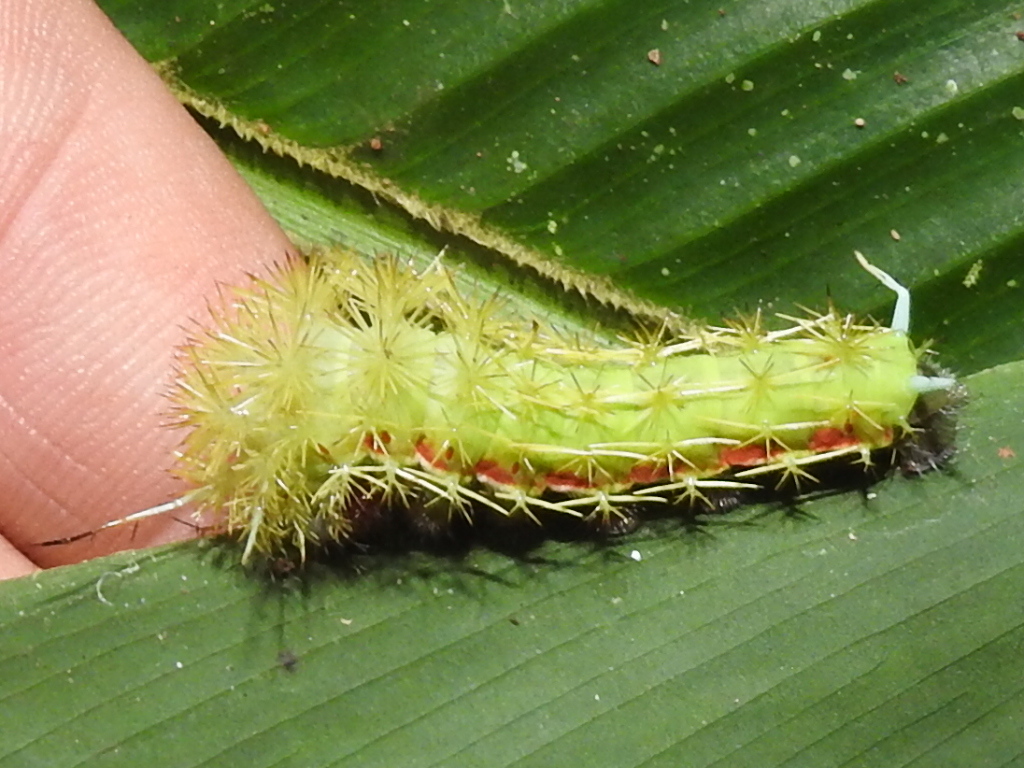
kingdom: Animalia
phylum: Arthropoda
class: Insecta
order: Lepidoptera
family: Saturniidae
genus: Periphoba
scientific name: Periphoba arcaei
